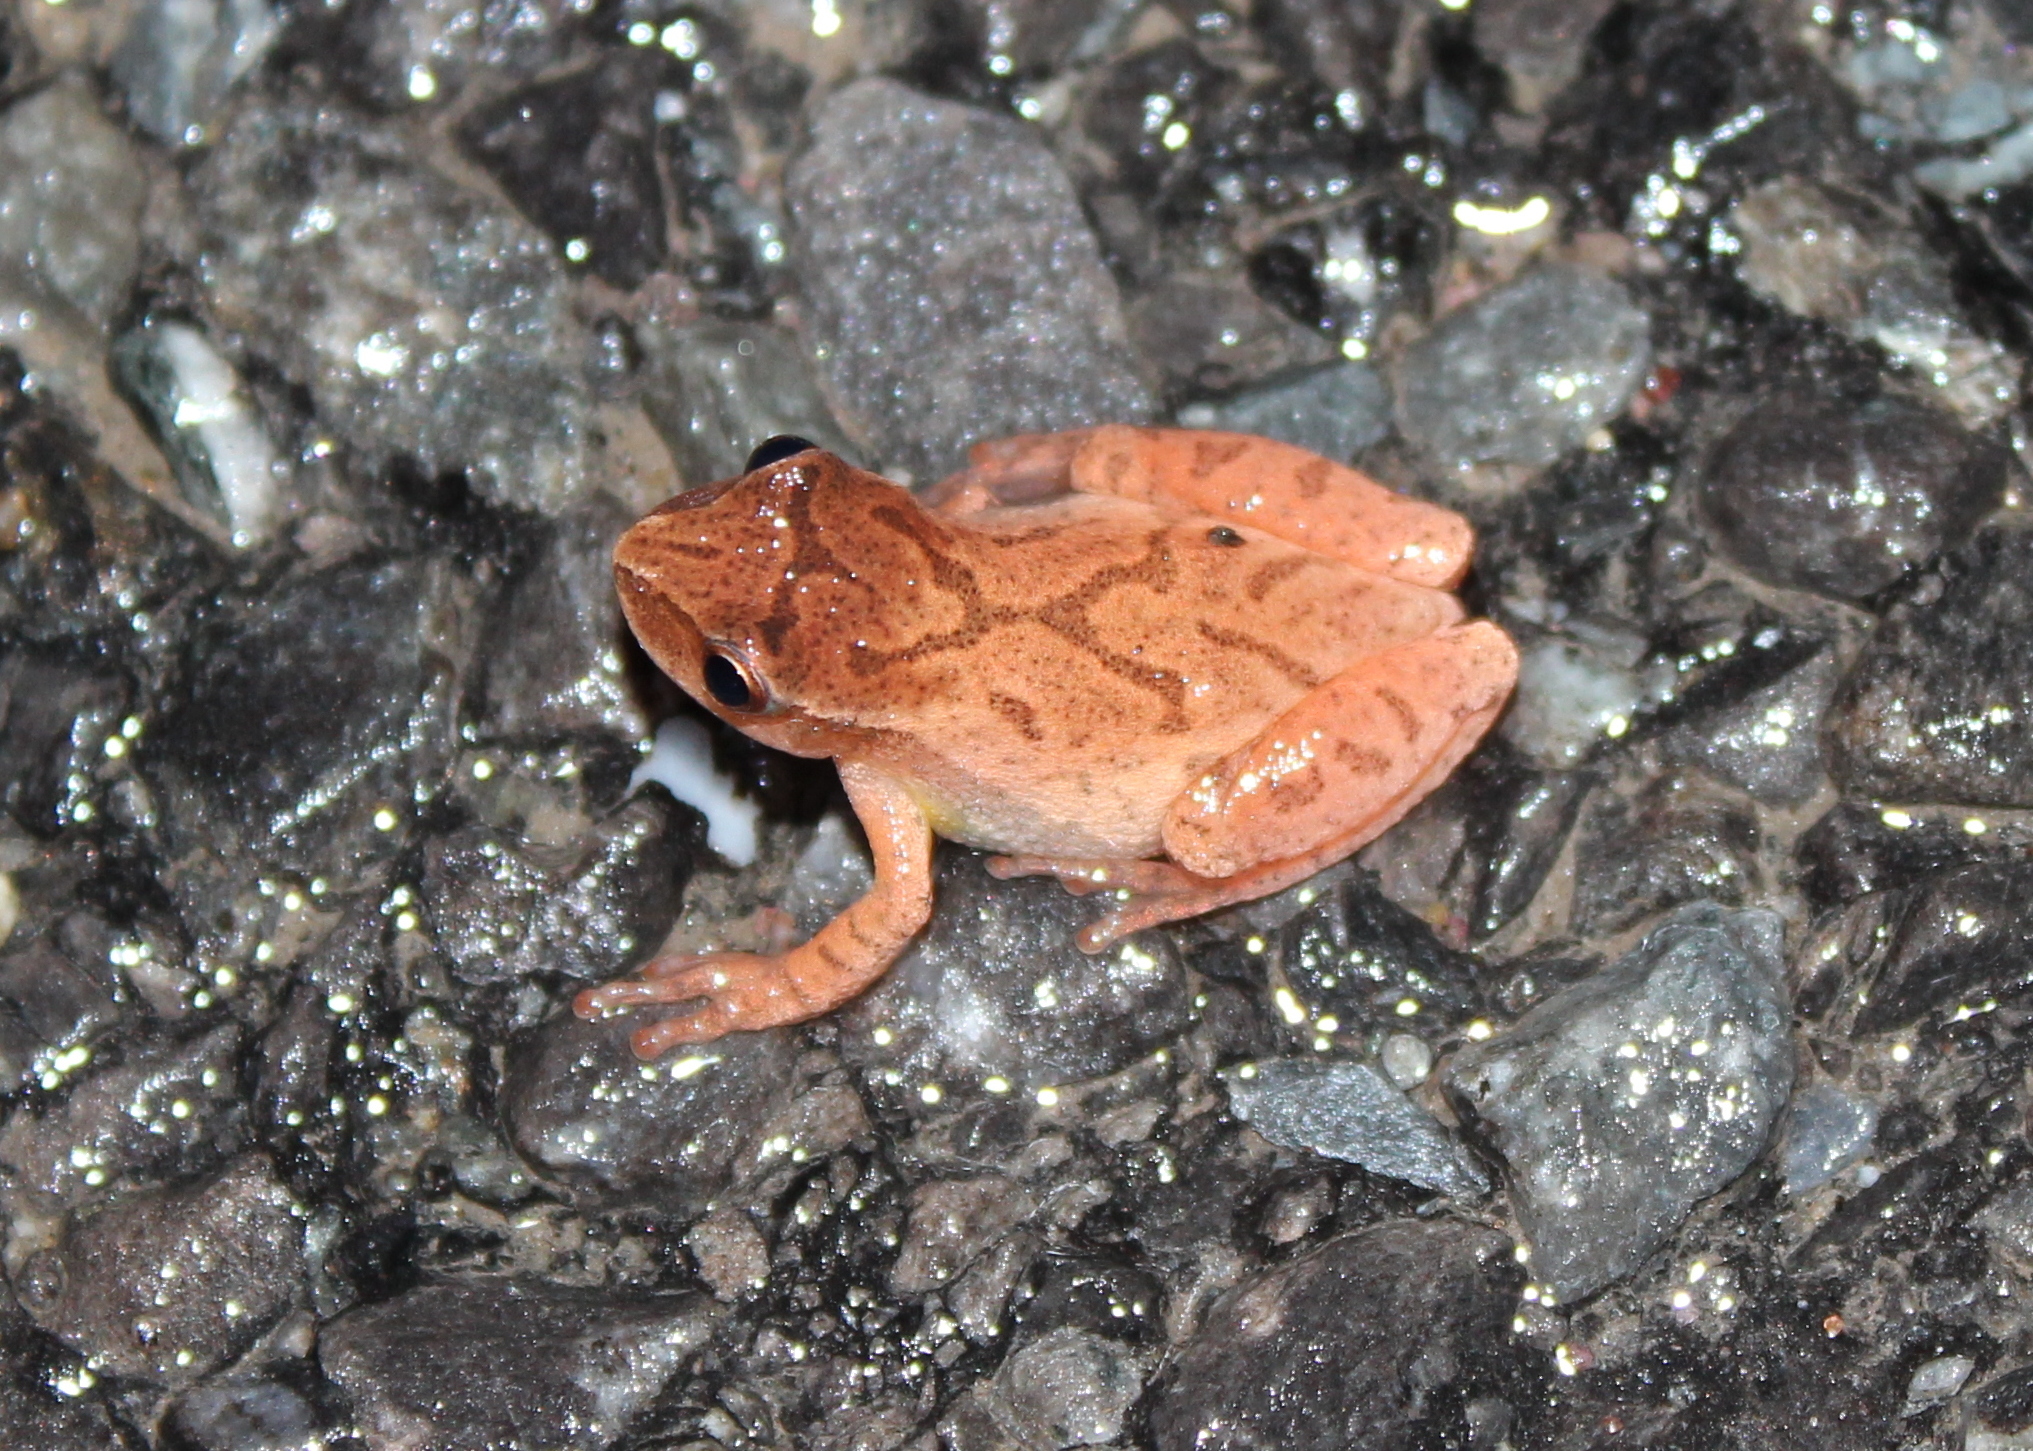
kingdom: Animalia
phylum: Chordata
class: Amphibia
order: Anura
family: Hylidae
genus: Pseudacris
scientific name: Pseudacris crucifer
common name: Spring peeper
